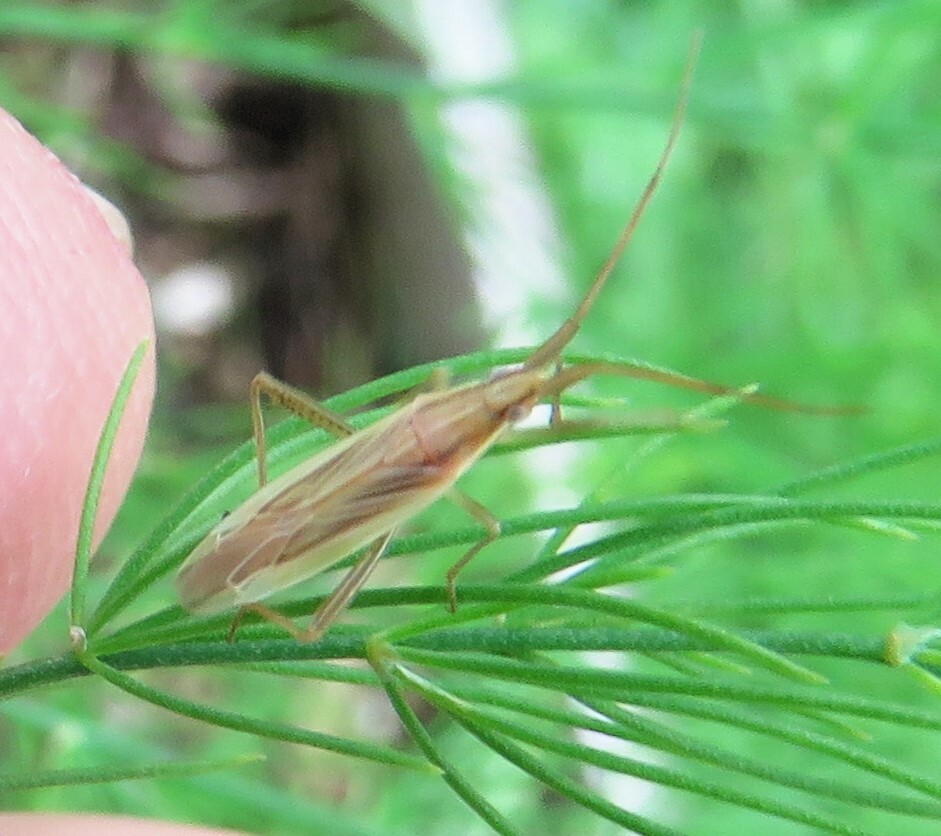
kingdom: Animalia
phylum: Arthropoda
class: Insecta
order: Hemiptera
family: Miridae
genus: Stenodema
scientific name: Stenodema trispinosa
